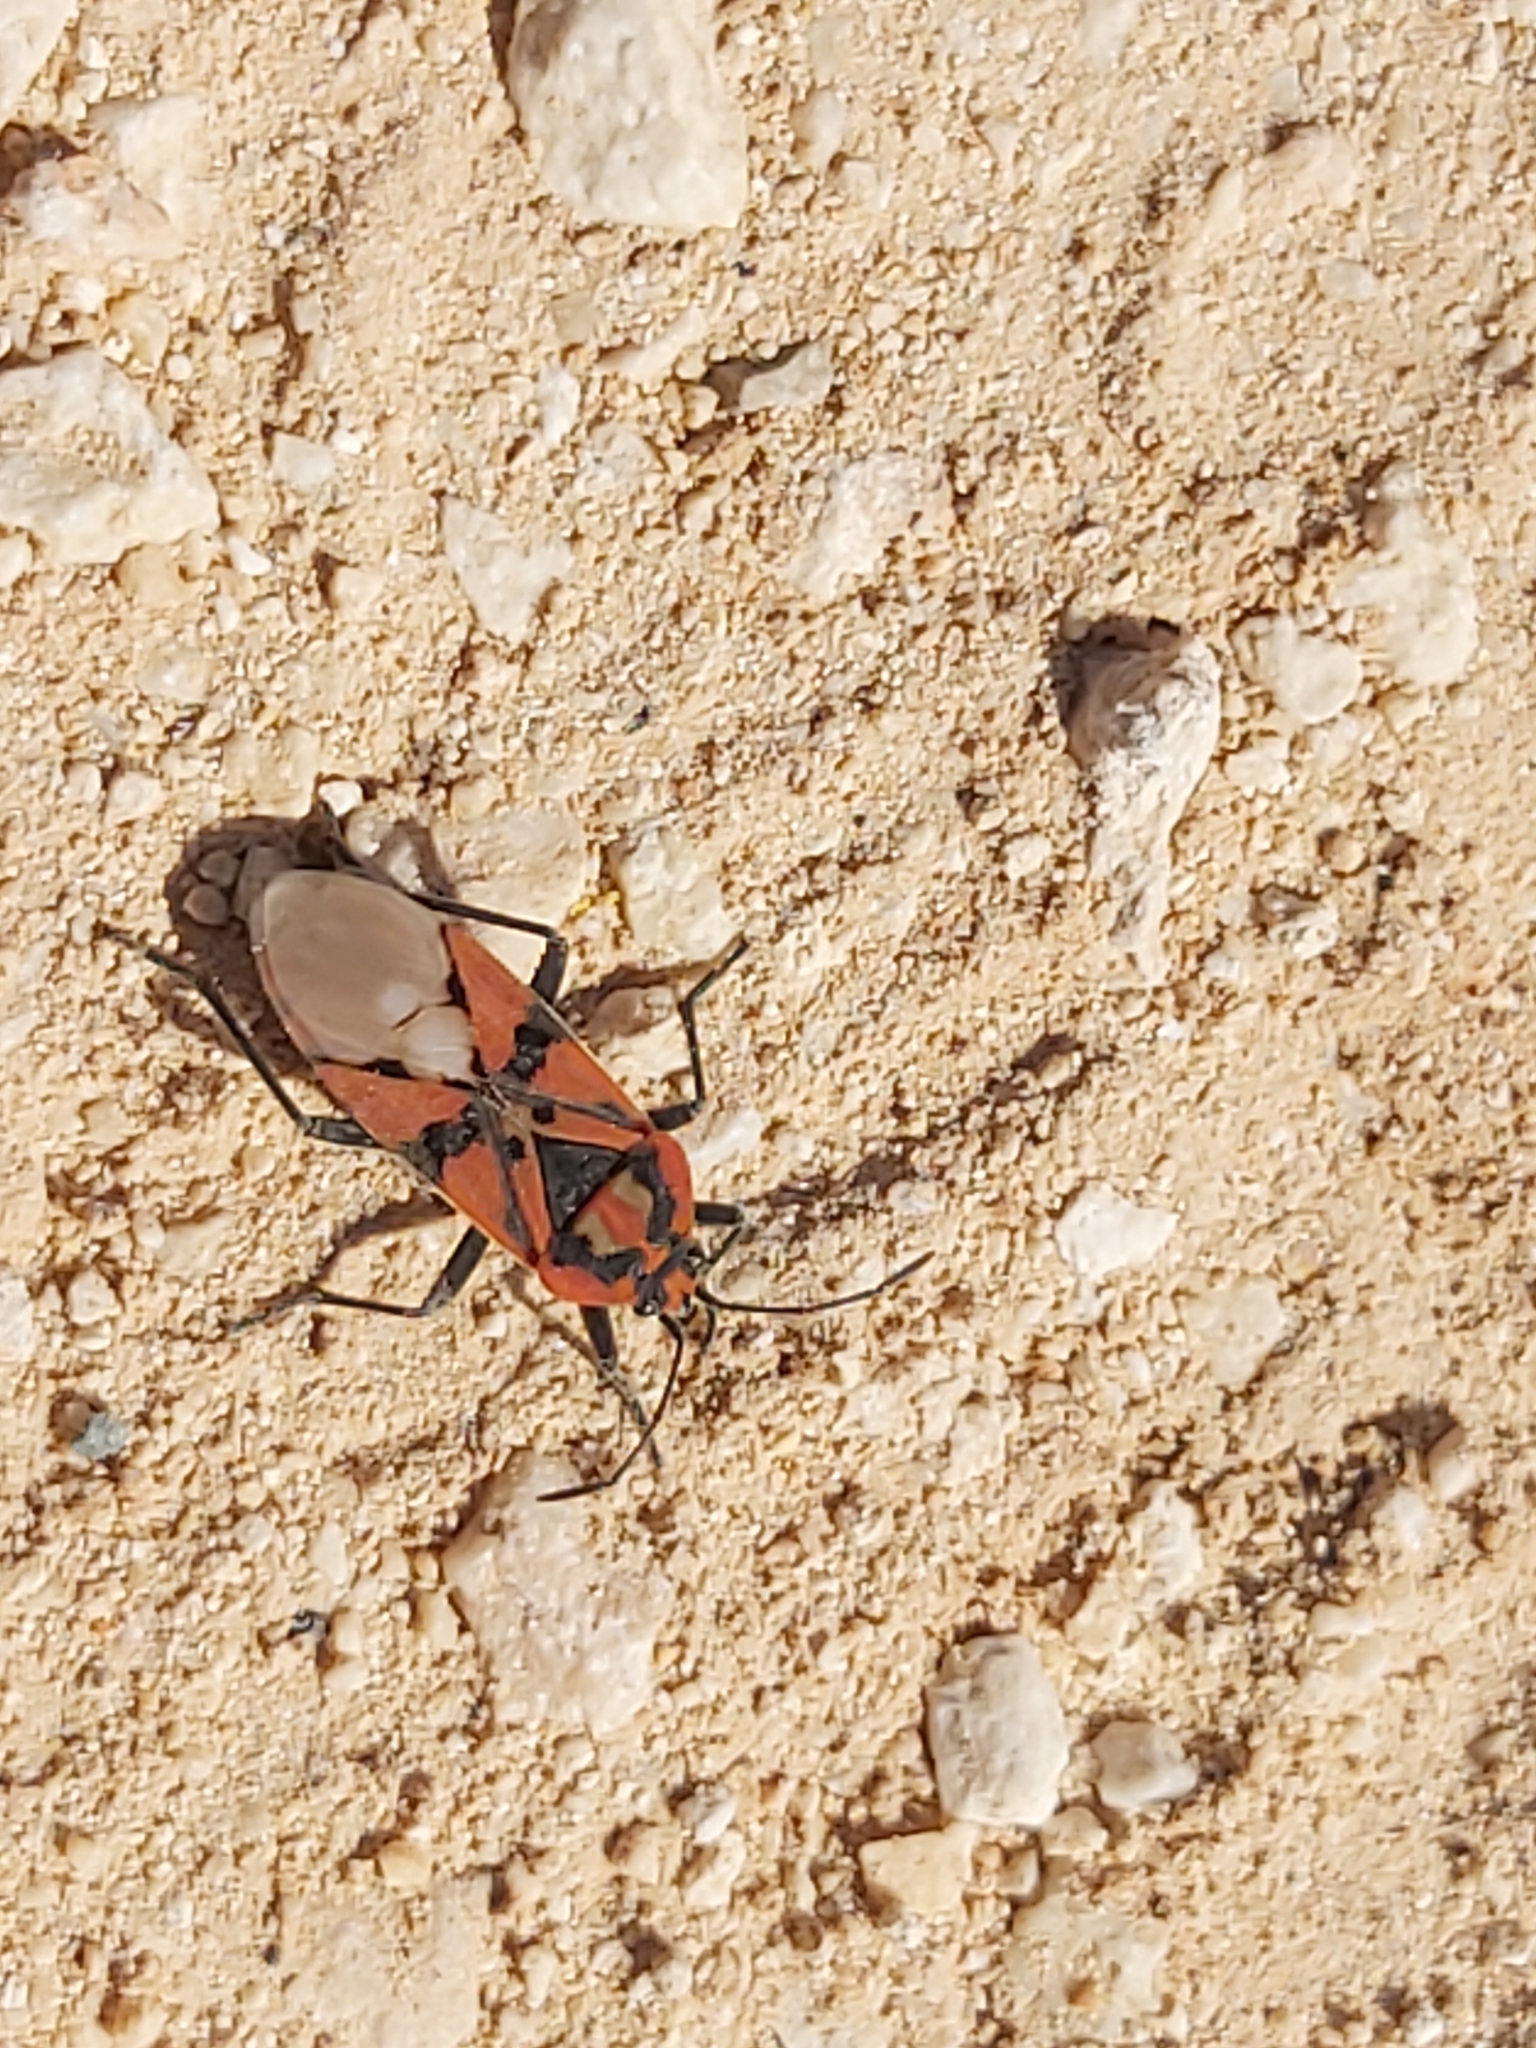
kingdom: Animalia
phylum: Arthropoda
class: Insecta
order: Hemiptera
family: Lygaeidae
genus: Spilostethus
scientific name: Spilostethus pandurus
